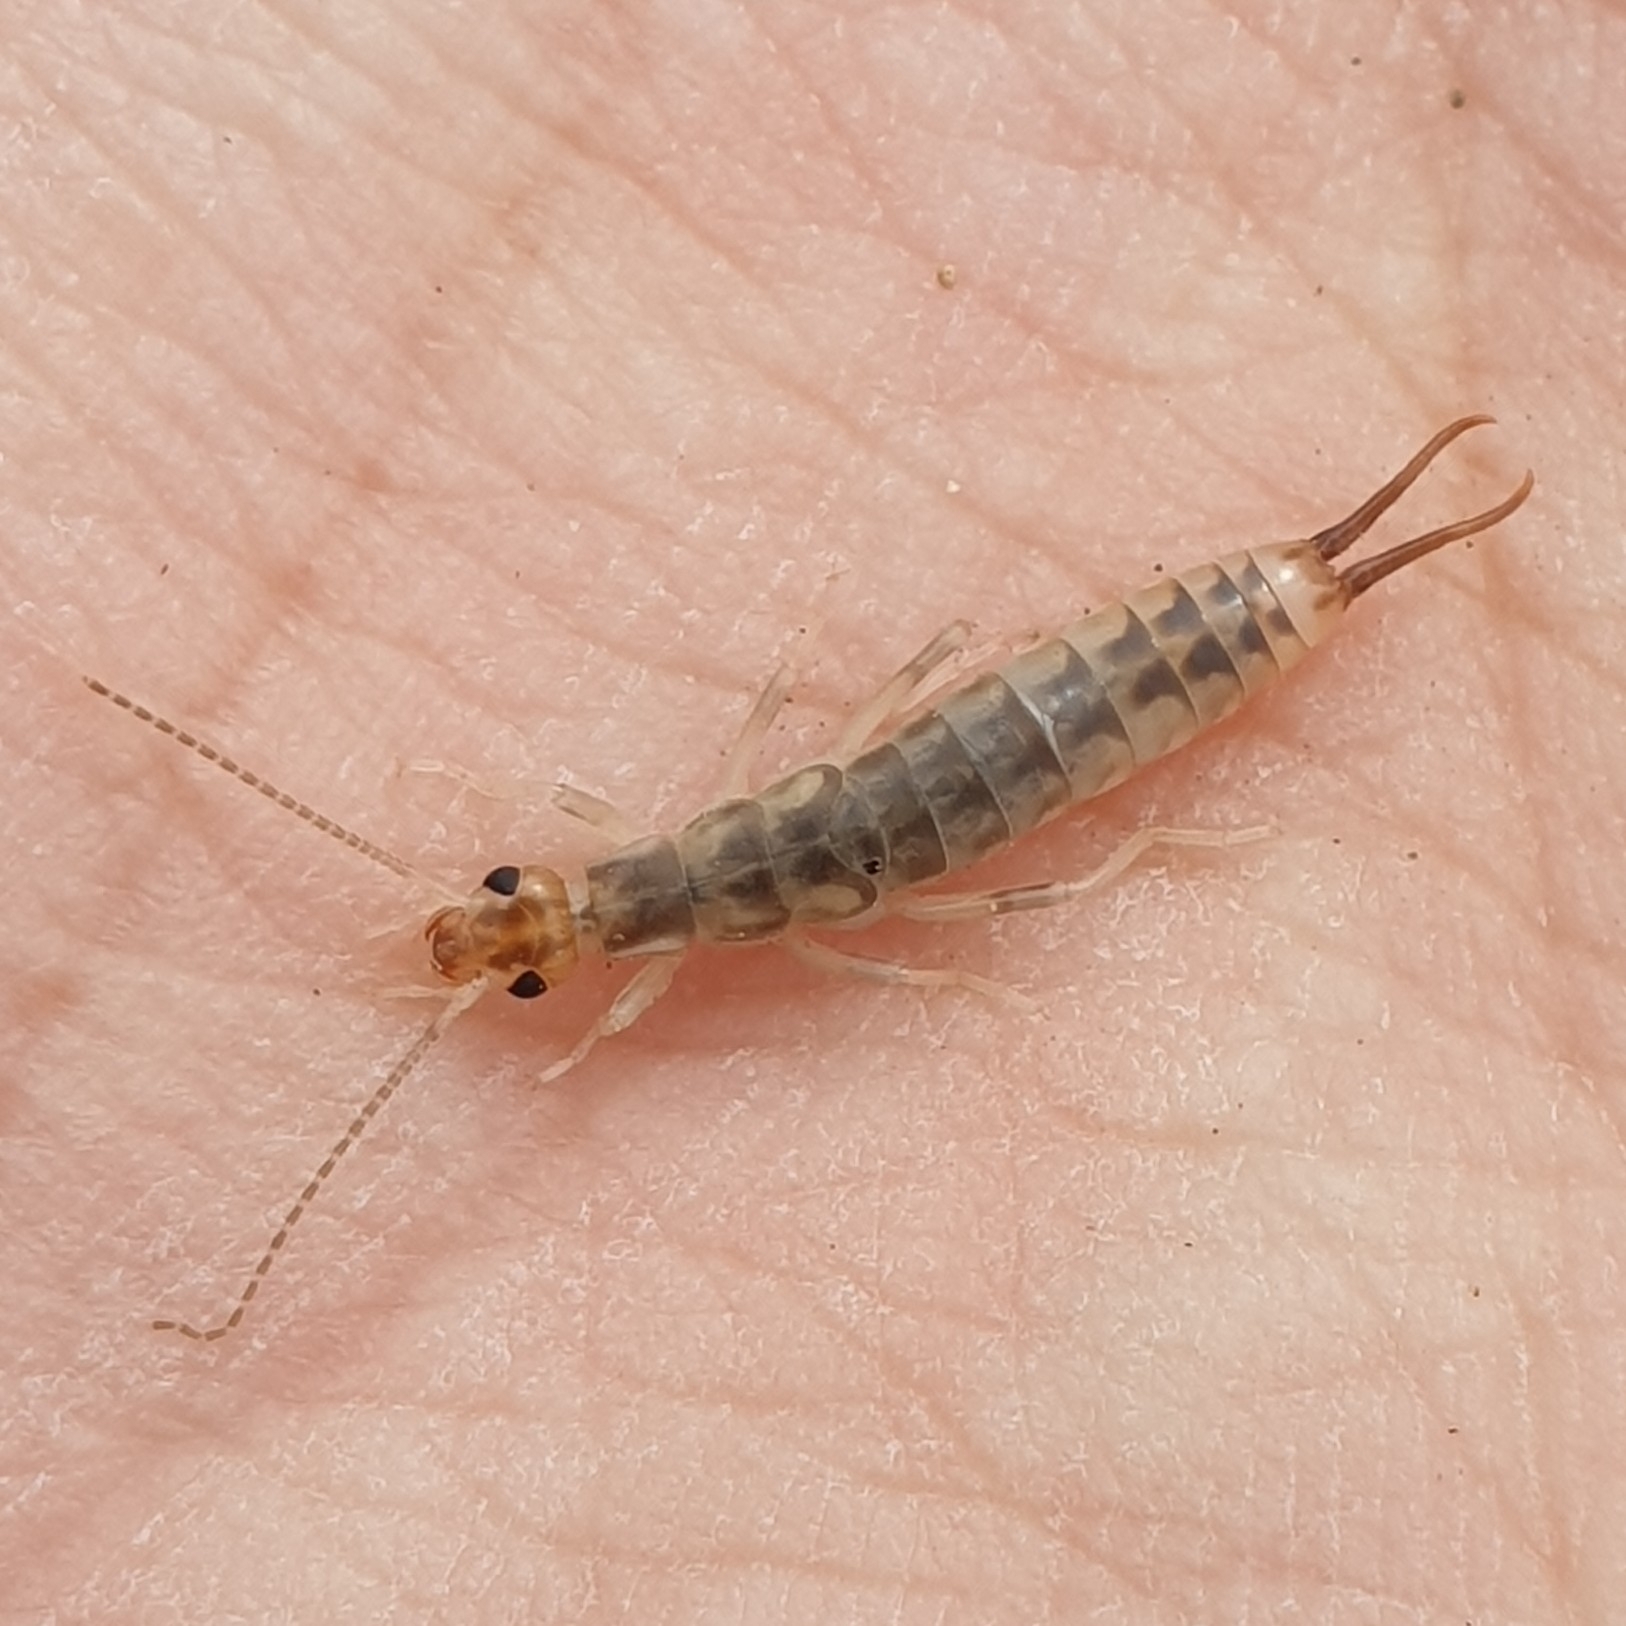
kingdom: Animalia
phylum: Arthropoda
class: Insecta
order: Dermaptera
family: Labiduridae
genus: Labidura
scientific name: Labidura riparia
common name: Striped earwig
